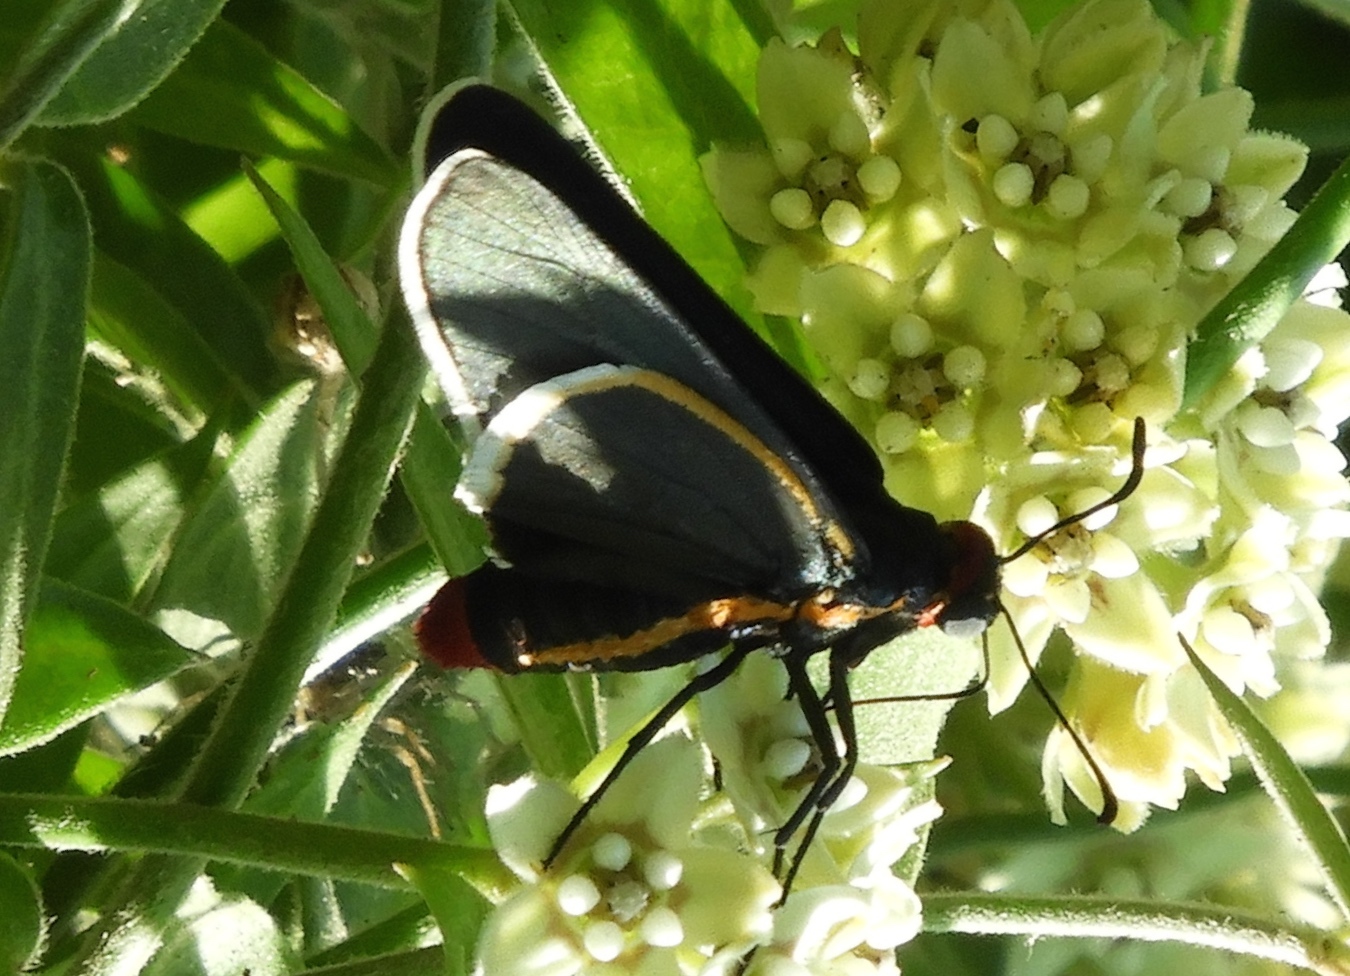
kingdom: Animalia
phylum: Arthropoda
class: Insecta
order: Lepidoptera
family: Hesperiidae
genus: Mysoria
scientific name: Mysoria affinis
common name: Red-collared firetip
